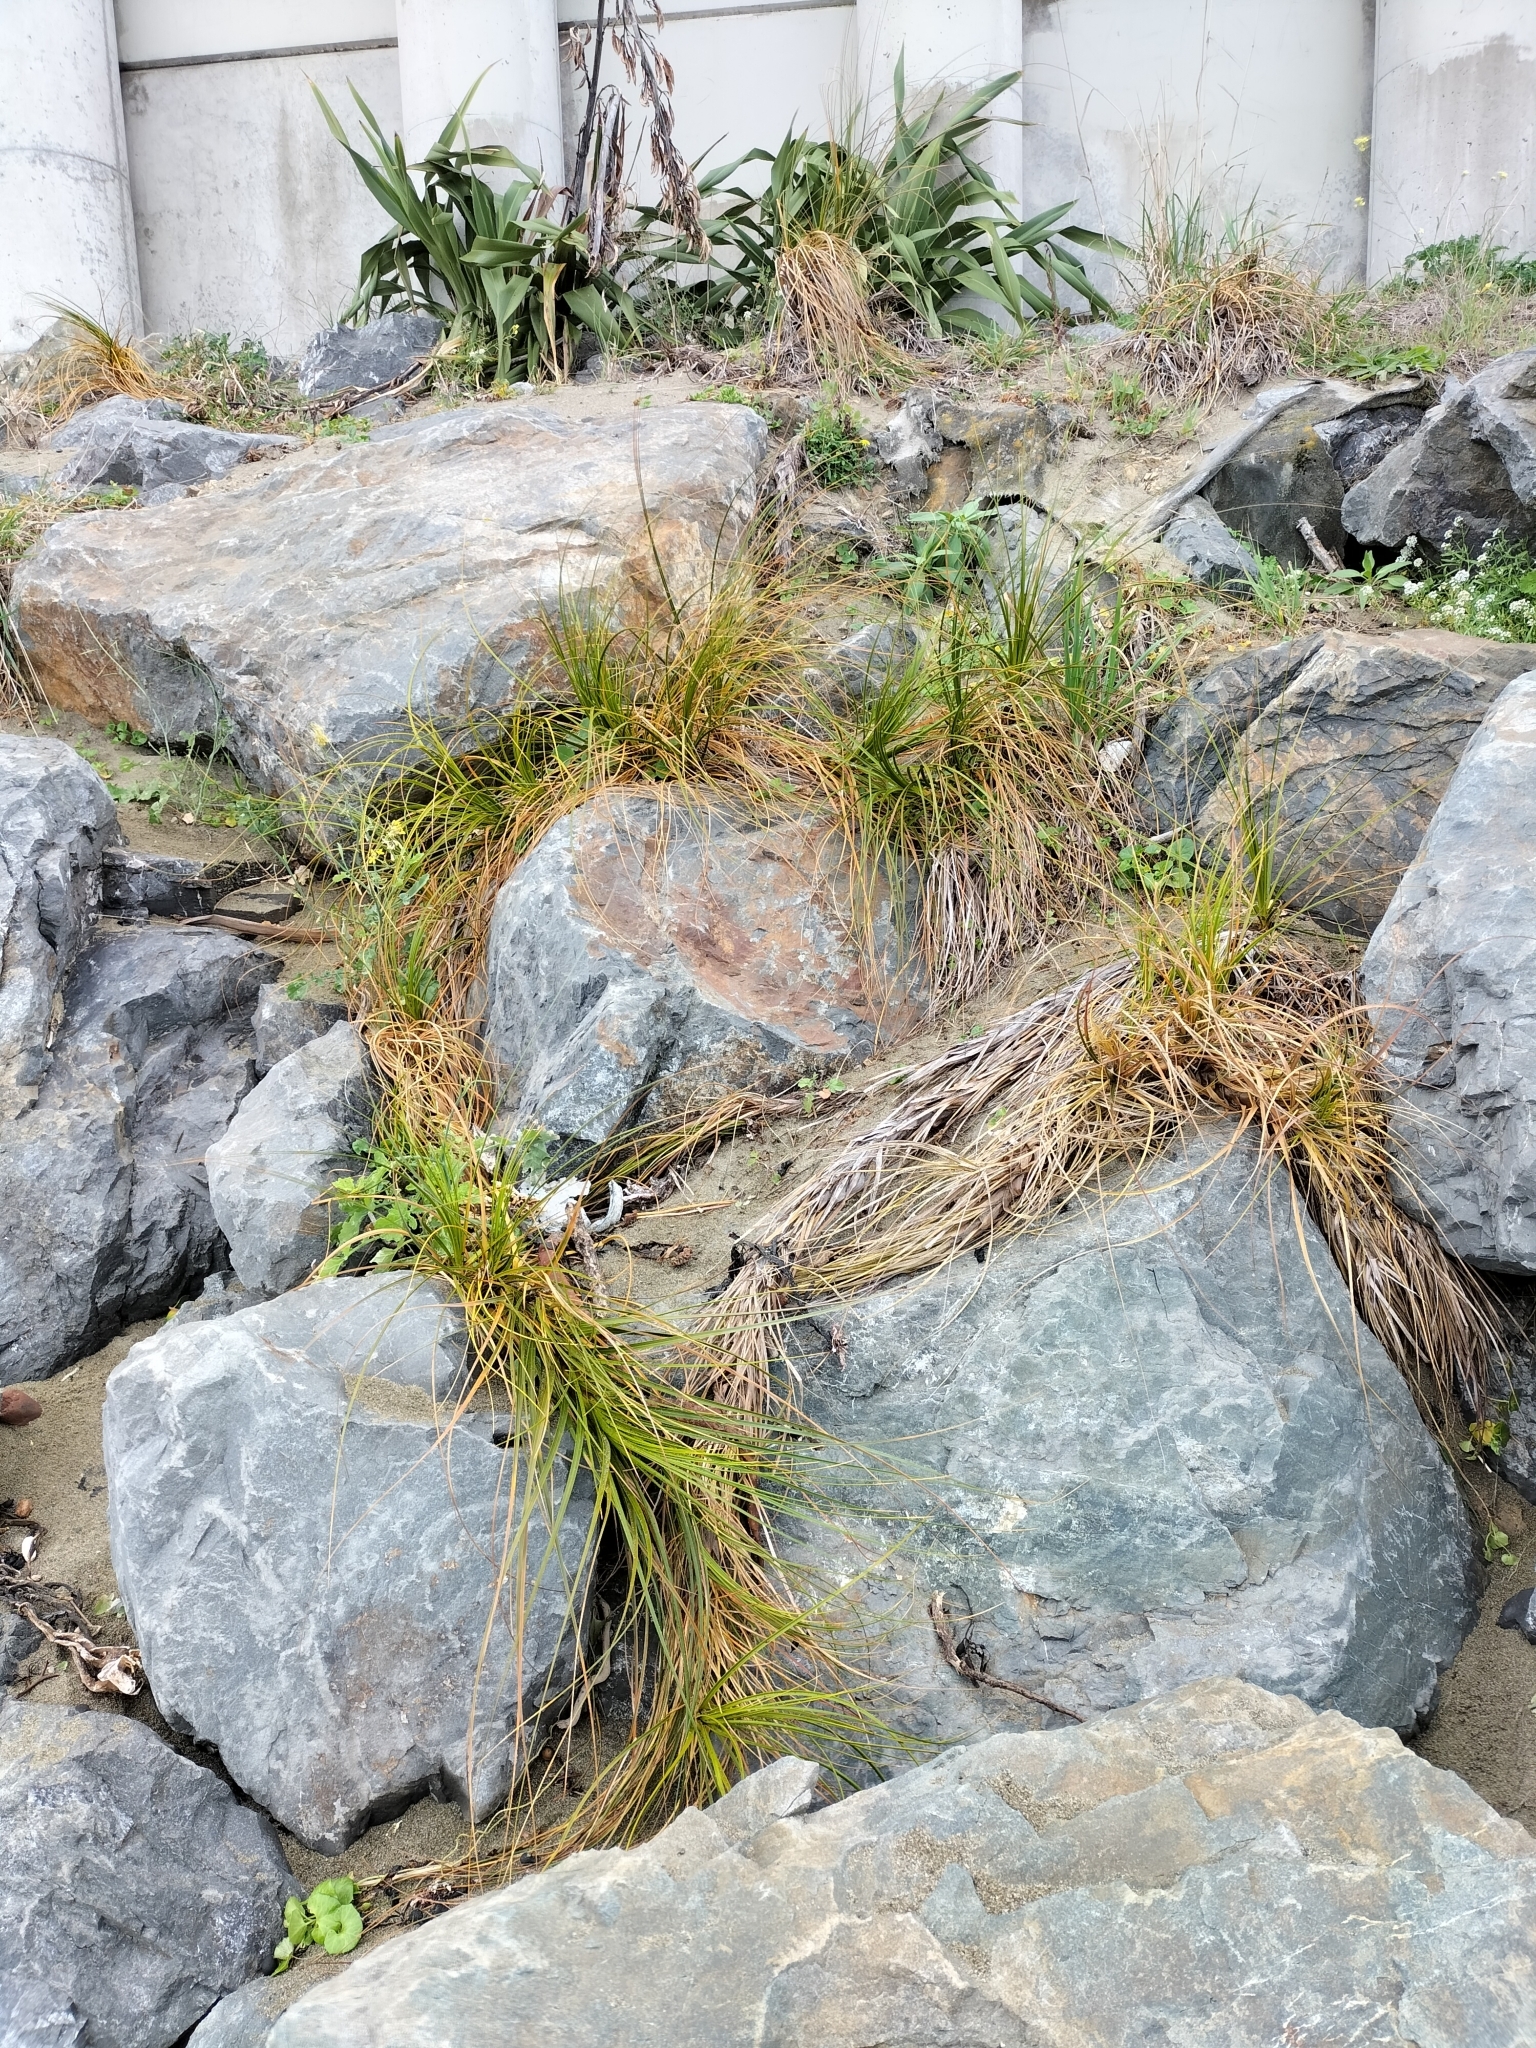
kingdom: Plantae
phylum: Tracheophyta
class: Liliopsida
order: Poales
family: Cyperaceae
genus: Ficinia
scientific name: Ficinia spiralis
